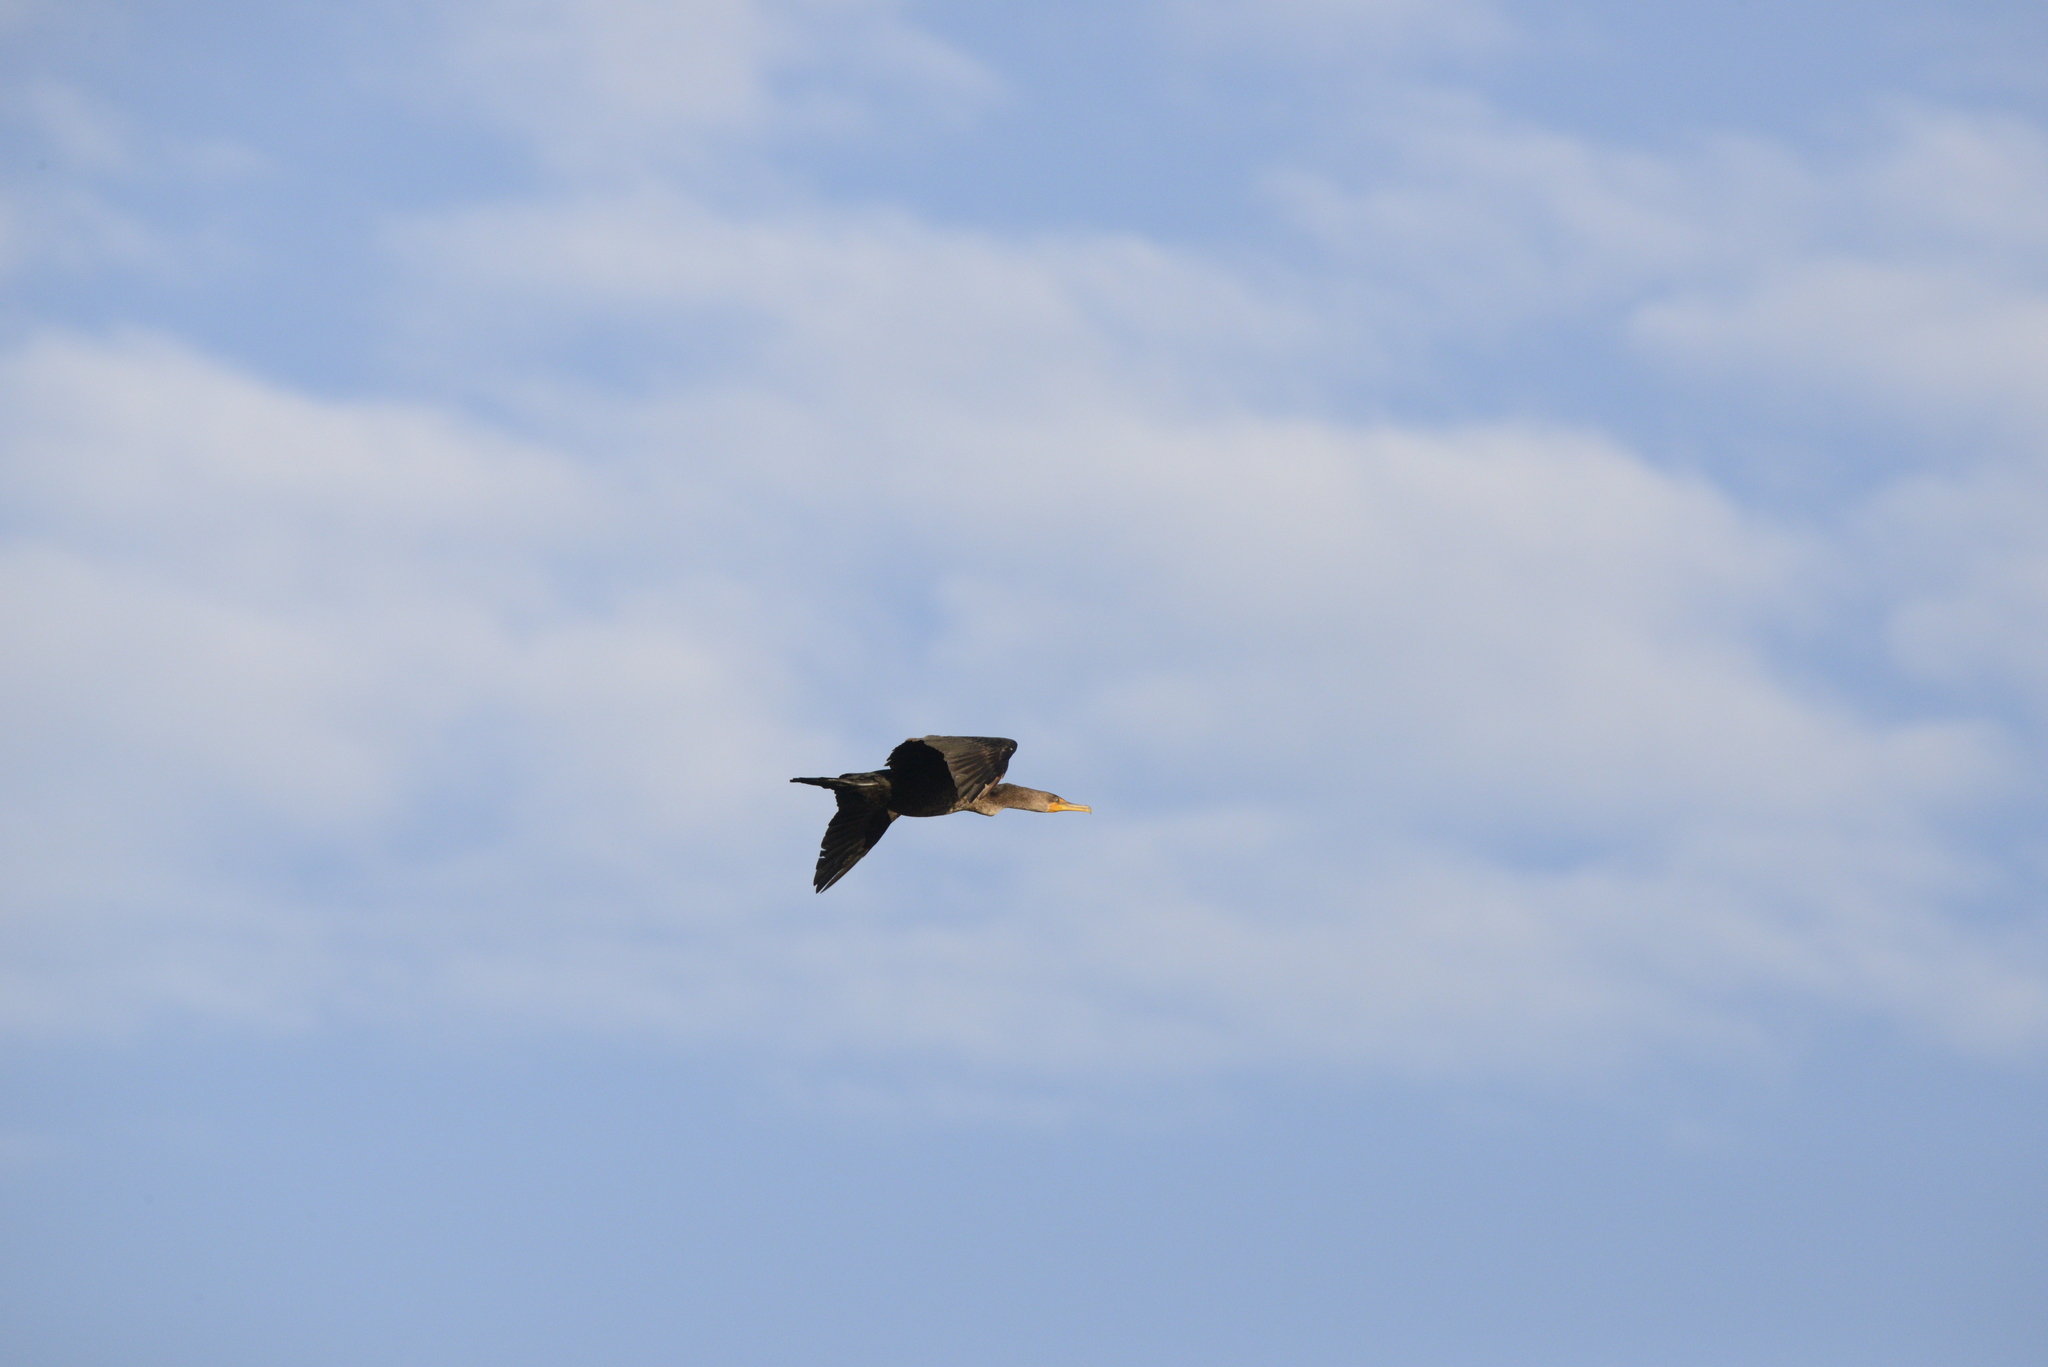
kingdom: Animalia
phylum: Chordata
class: Aves
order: Suliformes
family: Phalacrocoracidae
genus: Phalacrocorax
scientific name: Phalacrocorax auritus
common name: Double-crested cormorant
